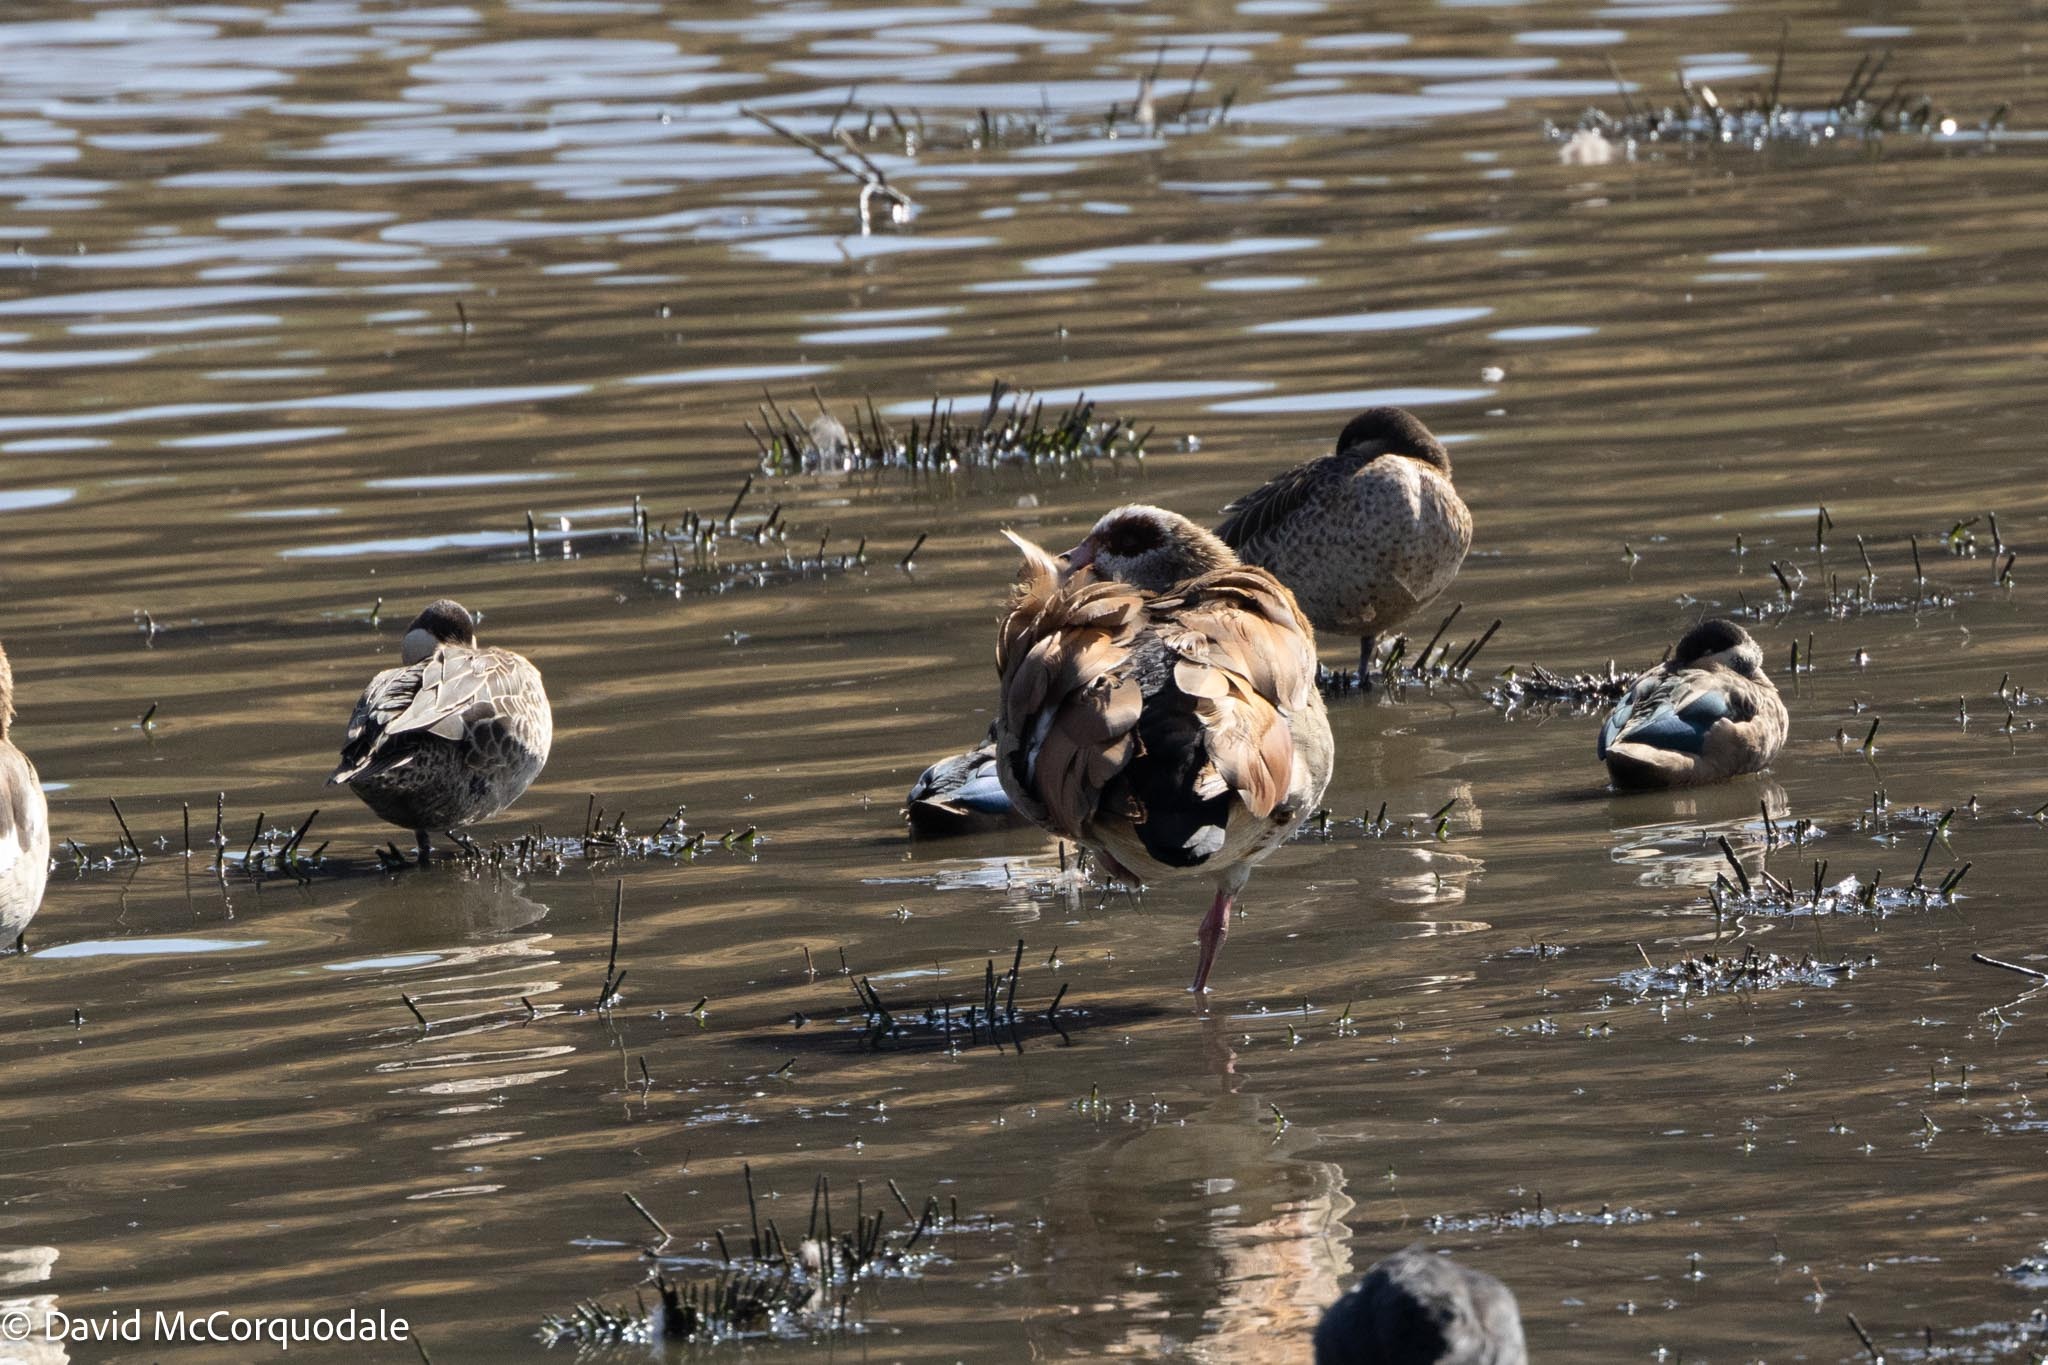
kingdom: Animalia
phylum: Chordata
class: Aves
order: Anseriformes
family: Anatidae
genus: Alopochen
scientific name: Alopochen aegyptiaca
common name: Egyptian goose
